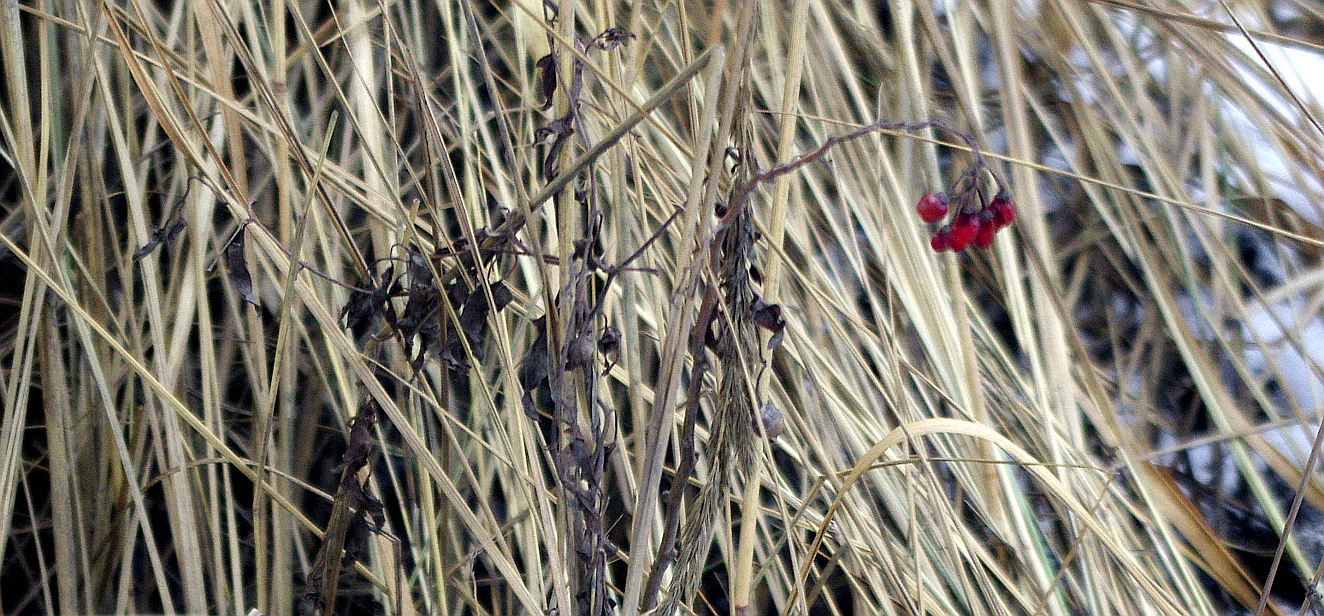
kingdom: Plantae
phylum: Tracheophyta
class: Magnoliopsida
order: Solanales
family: Solanaceae
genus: Solanum
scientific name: Solanum dulcamara
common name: Climbing nightshade
